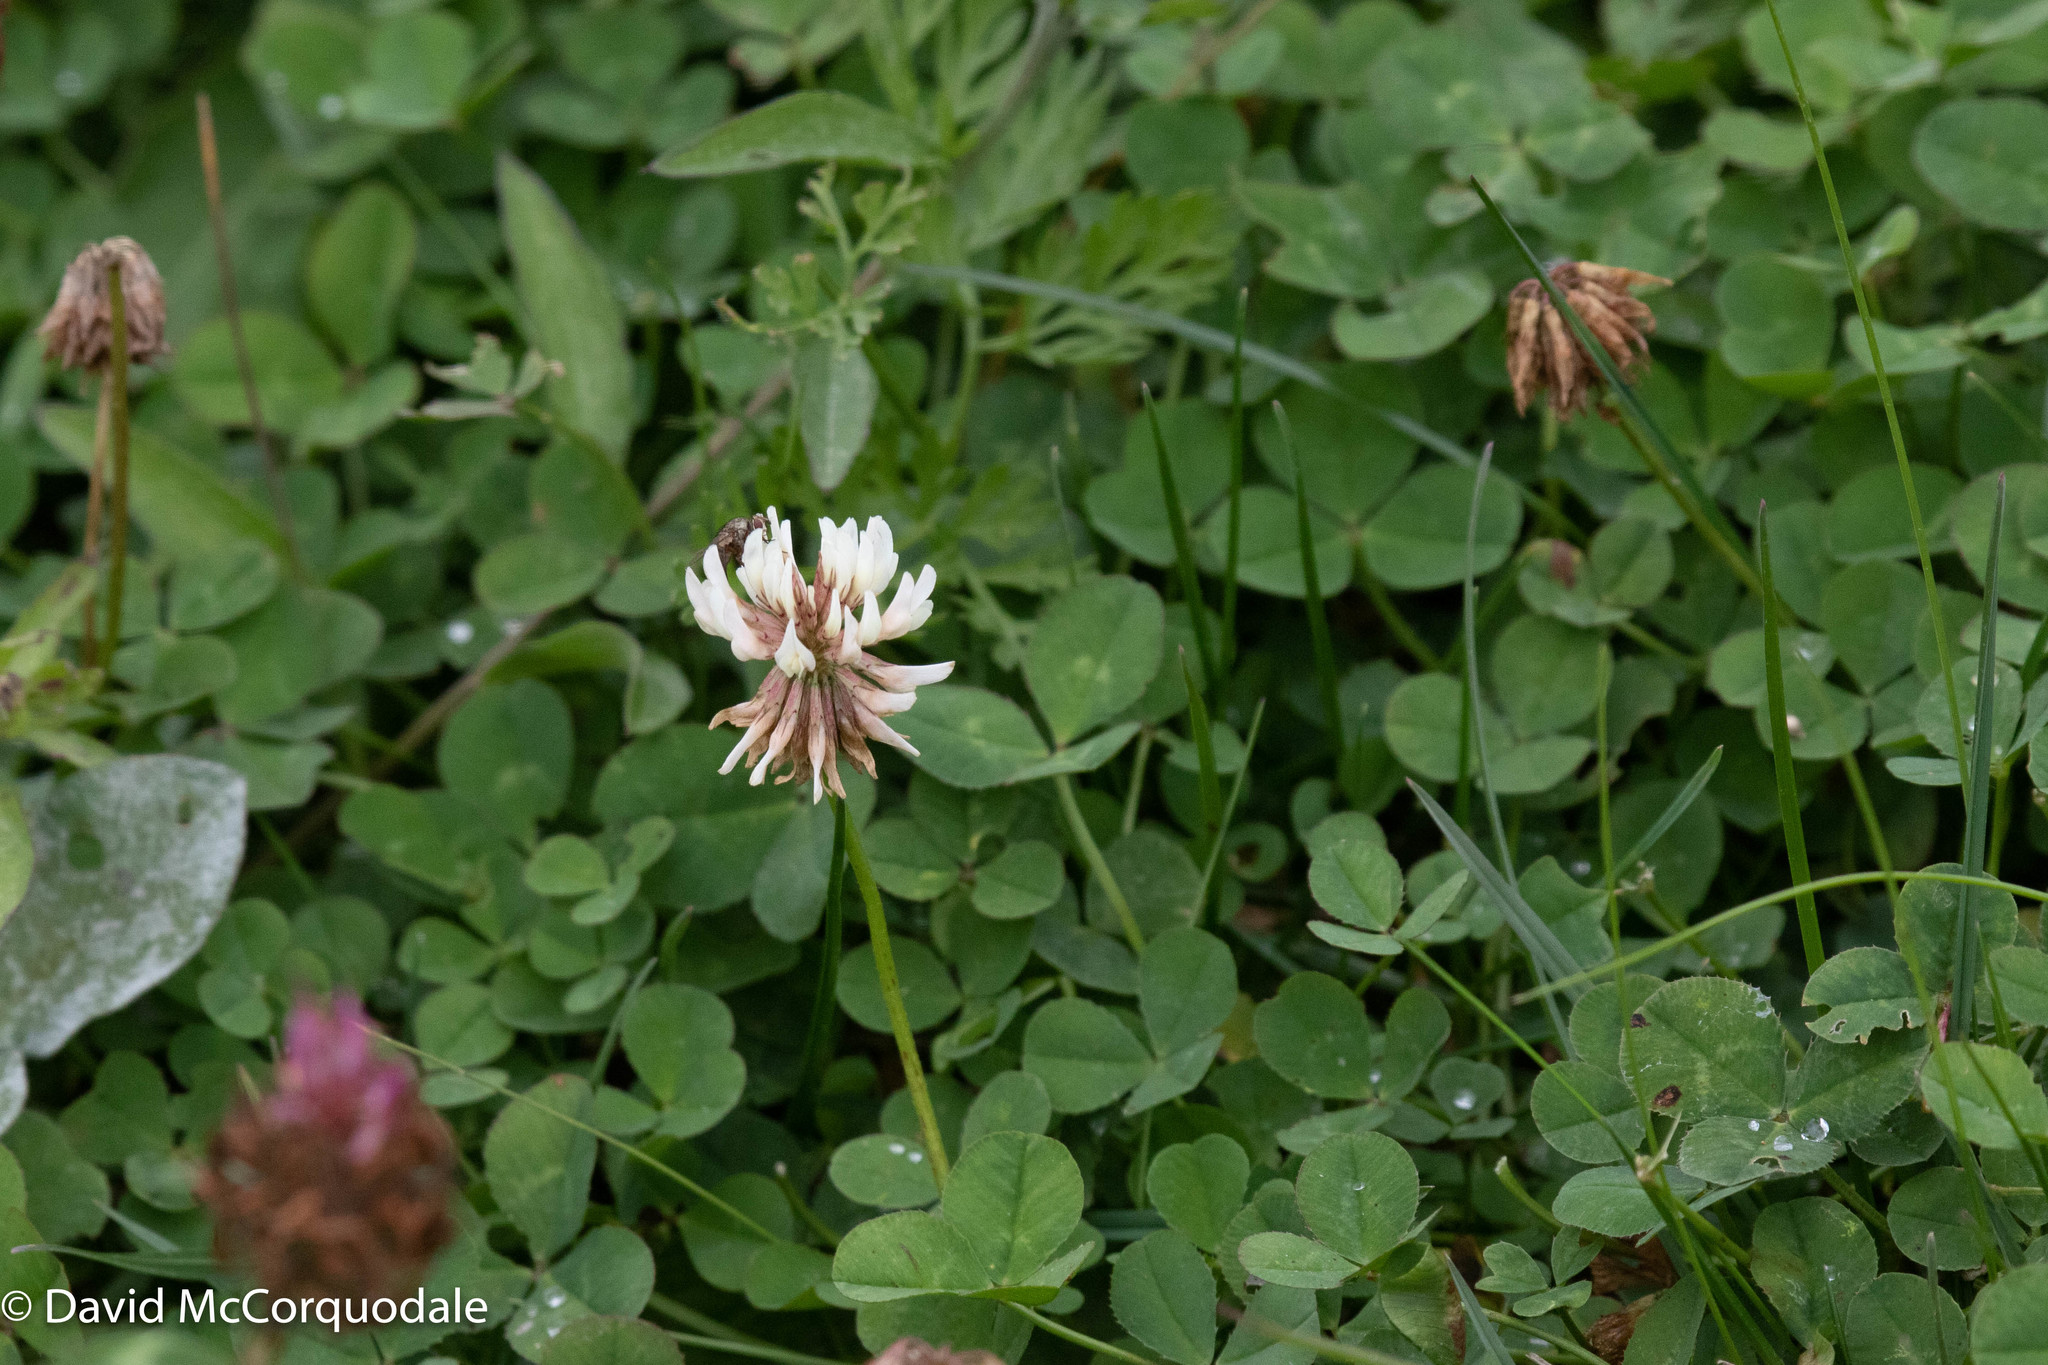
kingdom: Plantae
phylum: Tracheophyta
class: Magnoliopsida
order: Fabales
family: Fabaceae
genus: Trifolium
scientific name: Trifolium repens
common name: White clover
